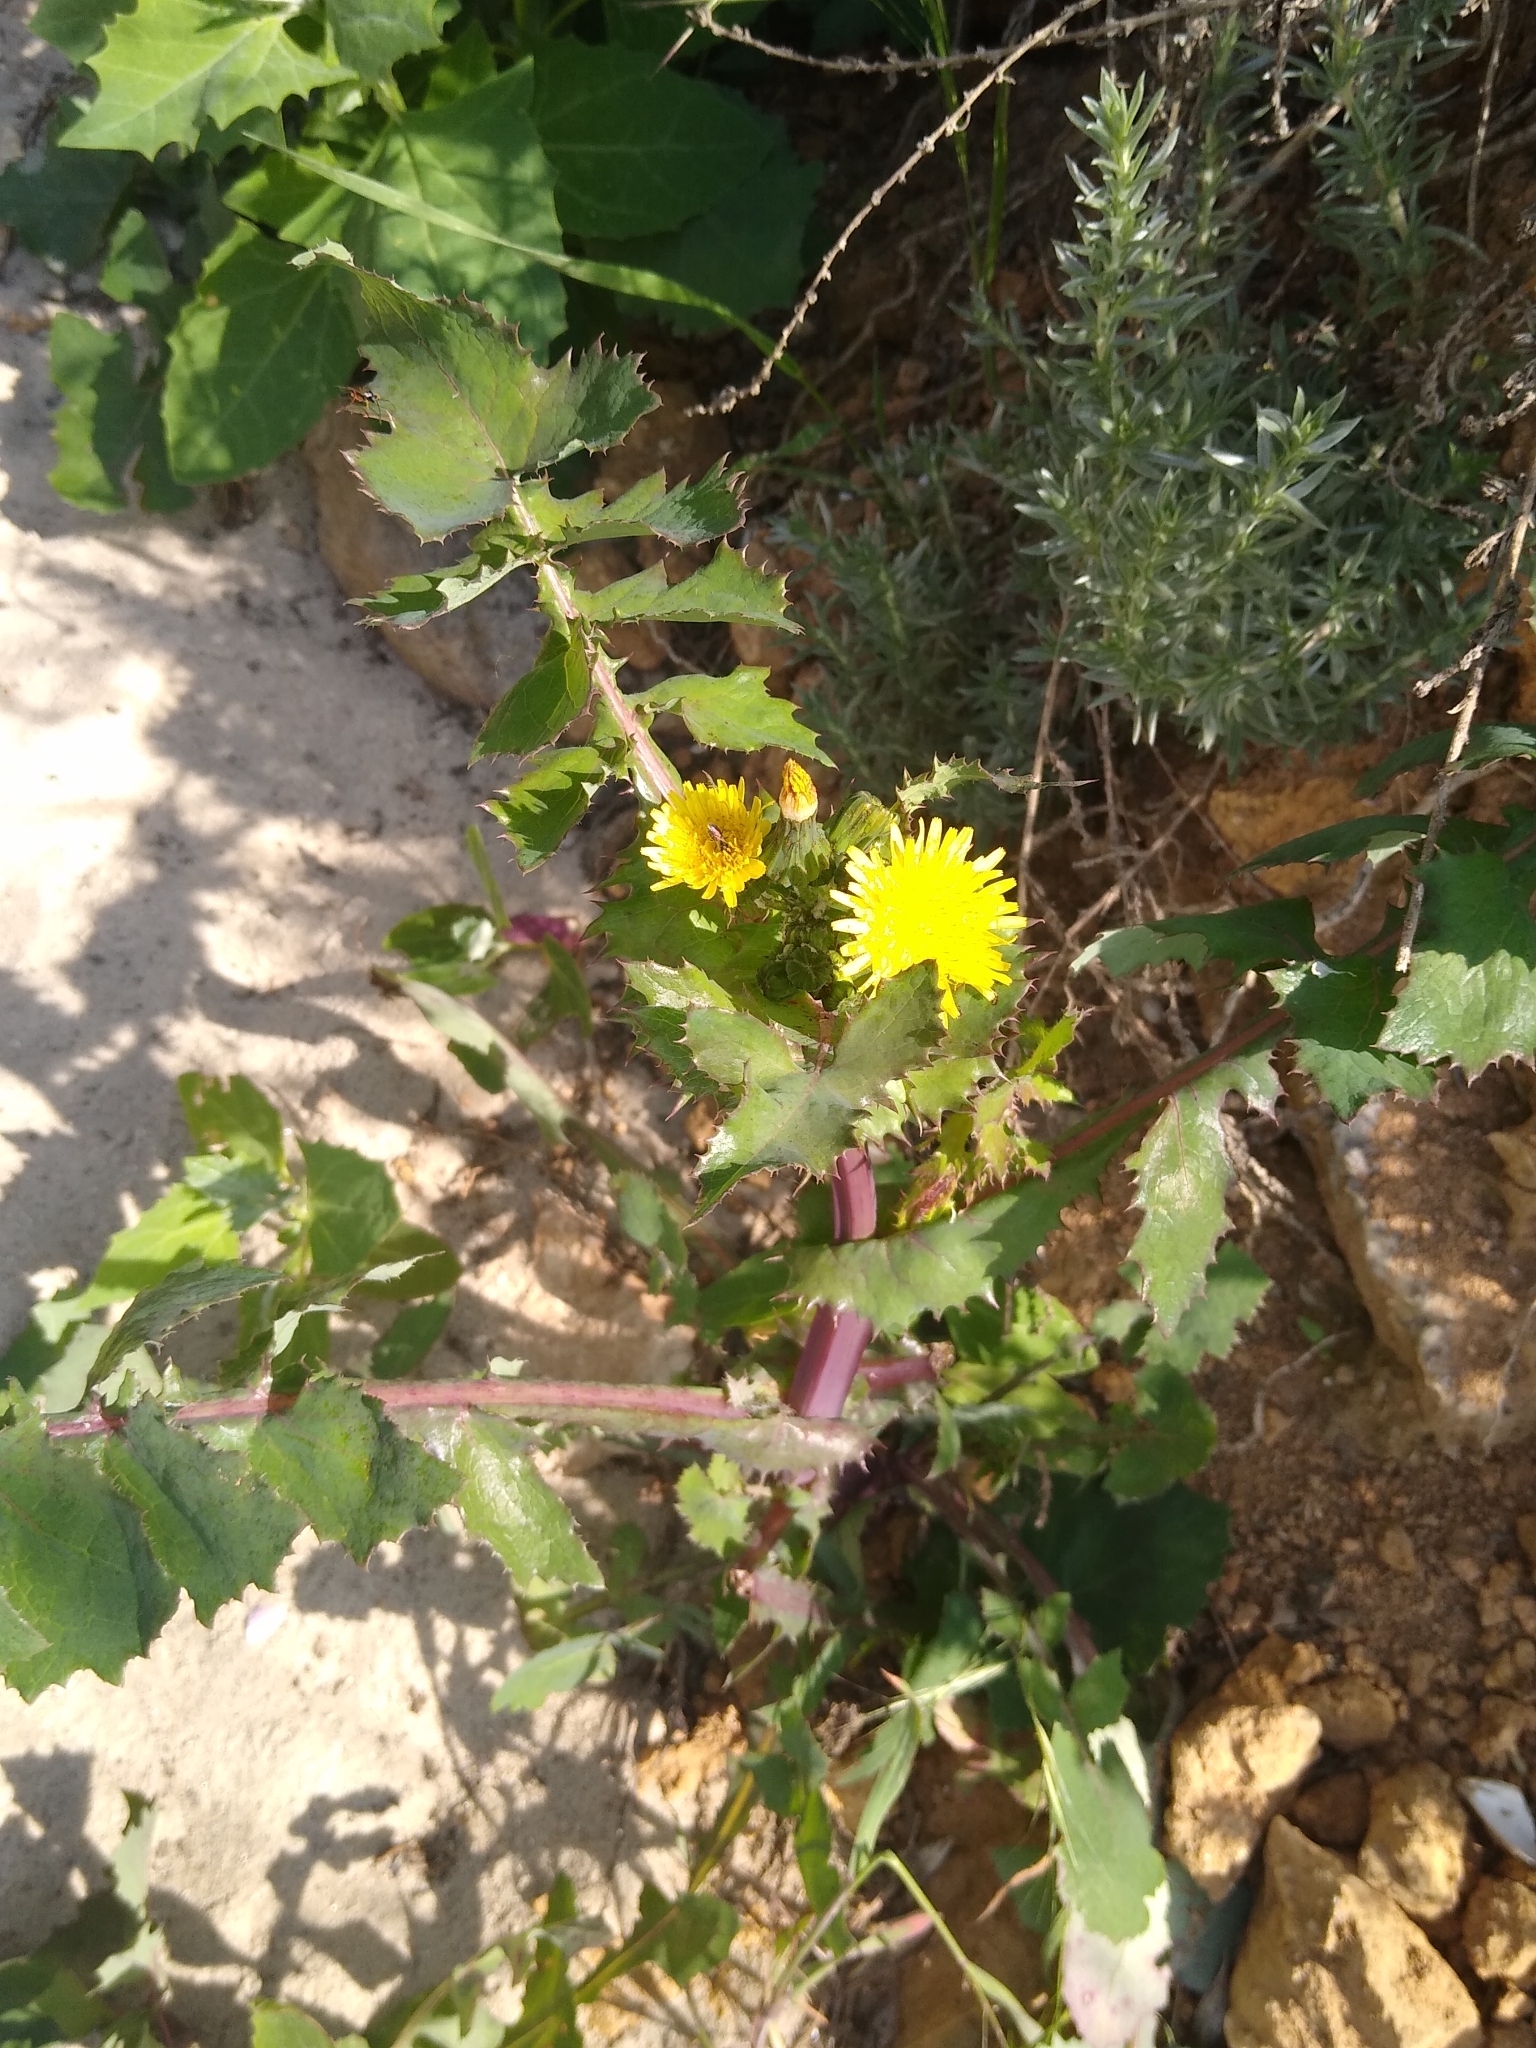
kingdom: Plantae
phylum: Tracheophyta
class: Magnoliopsida
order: Asterales
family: Asteraceae
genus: Sonchus
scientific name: Sonchus oleraceus
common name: Common sowthistle
